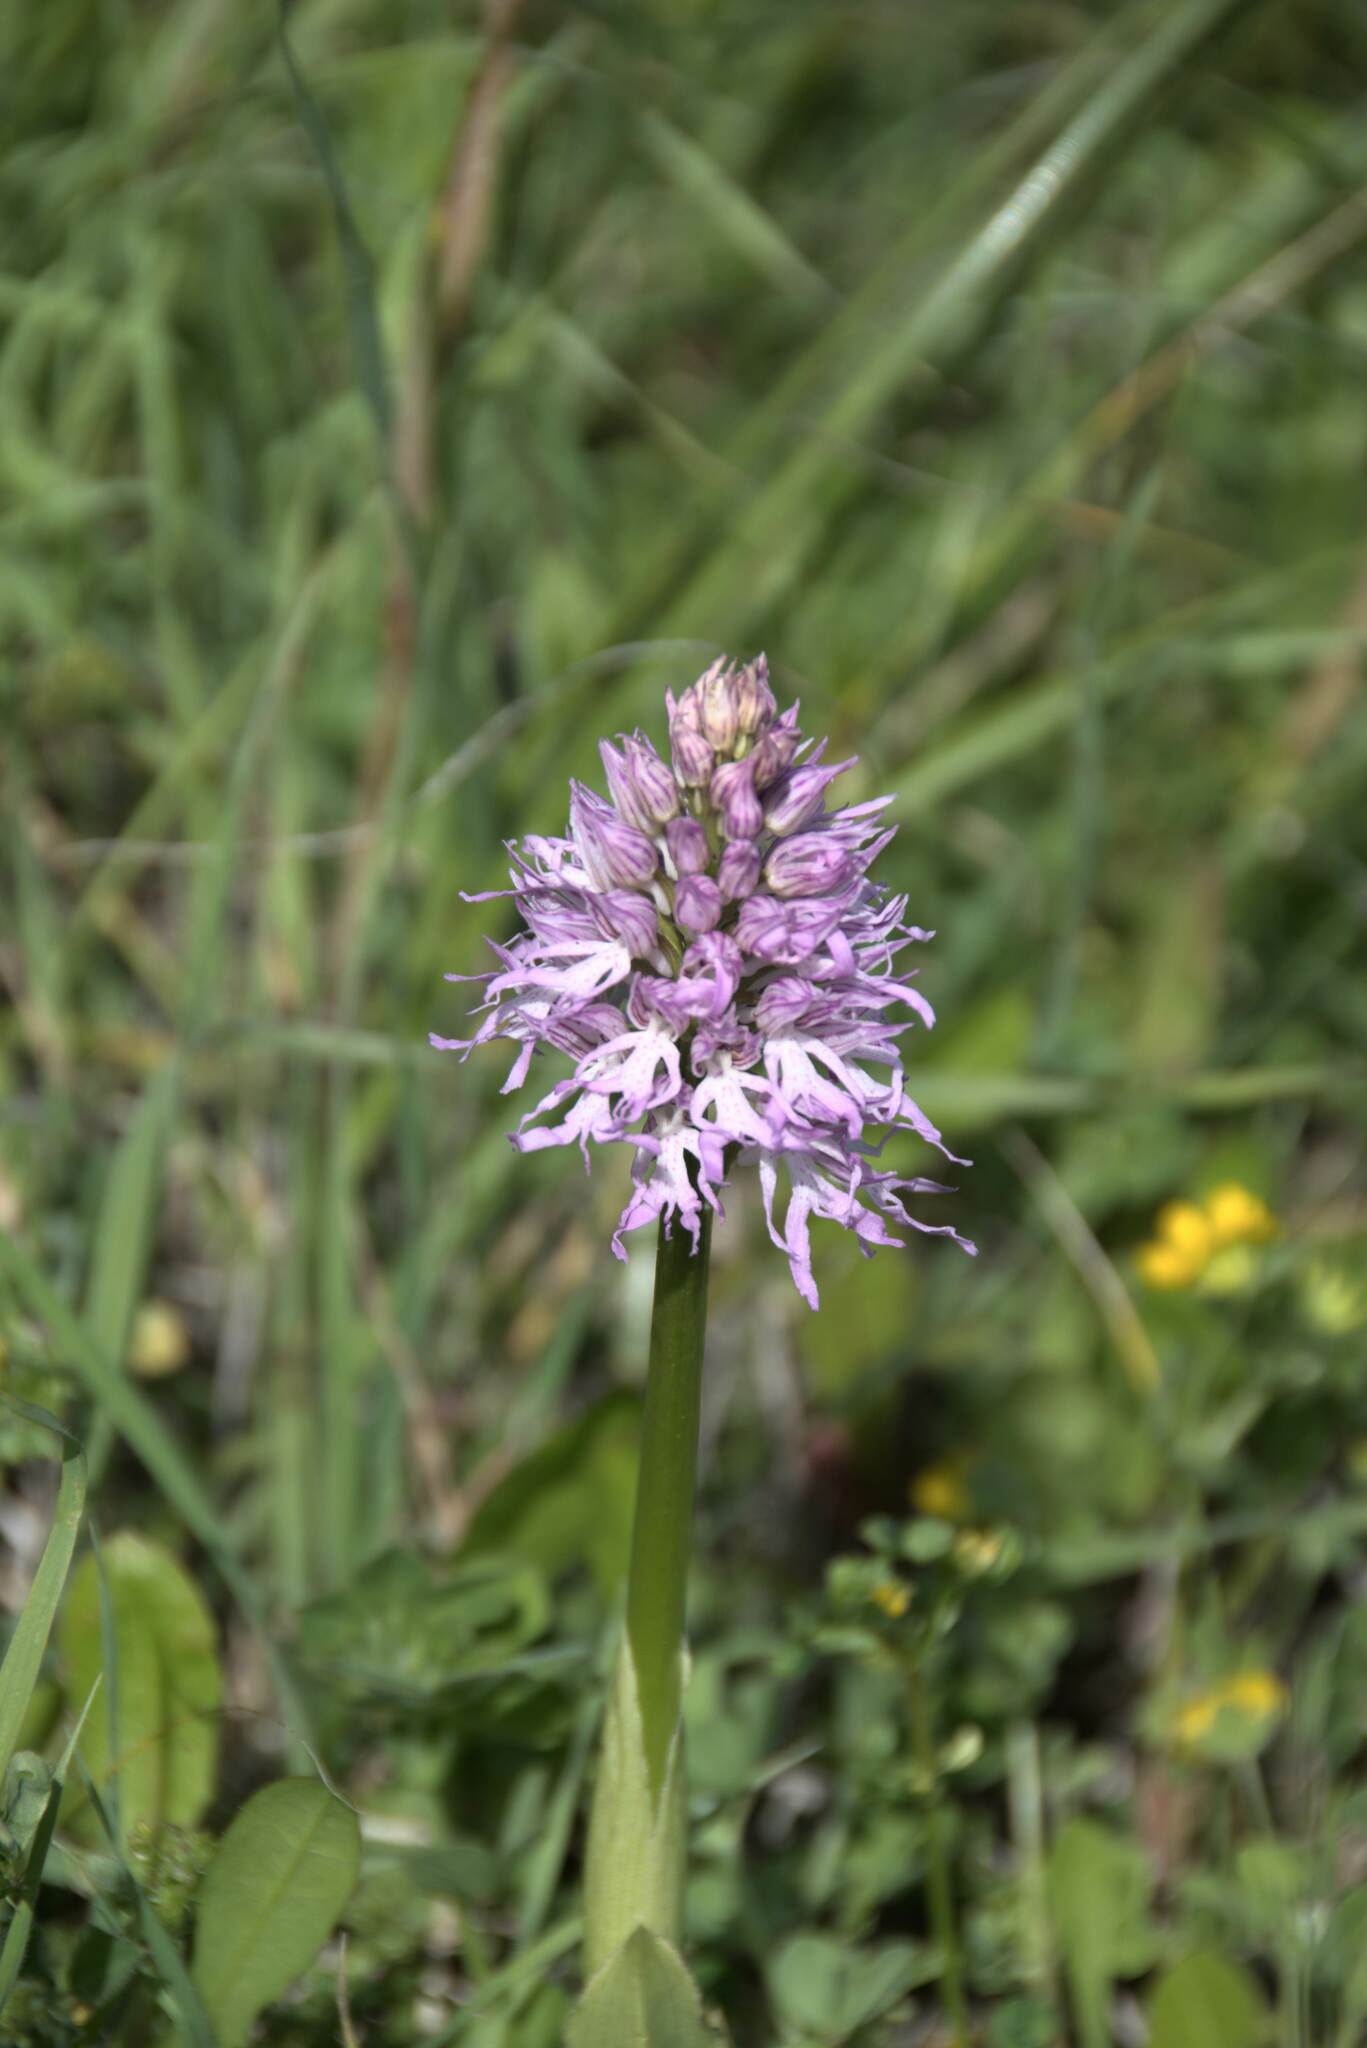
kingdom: Plantae
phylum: Tracheophyta
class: Liliopsida
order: Asparagales
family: Orchidaceae
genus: Orchis
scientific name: Orchis italica
